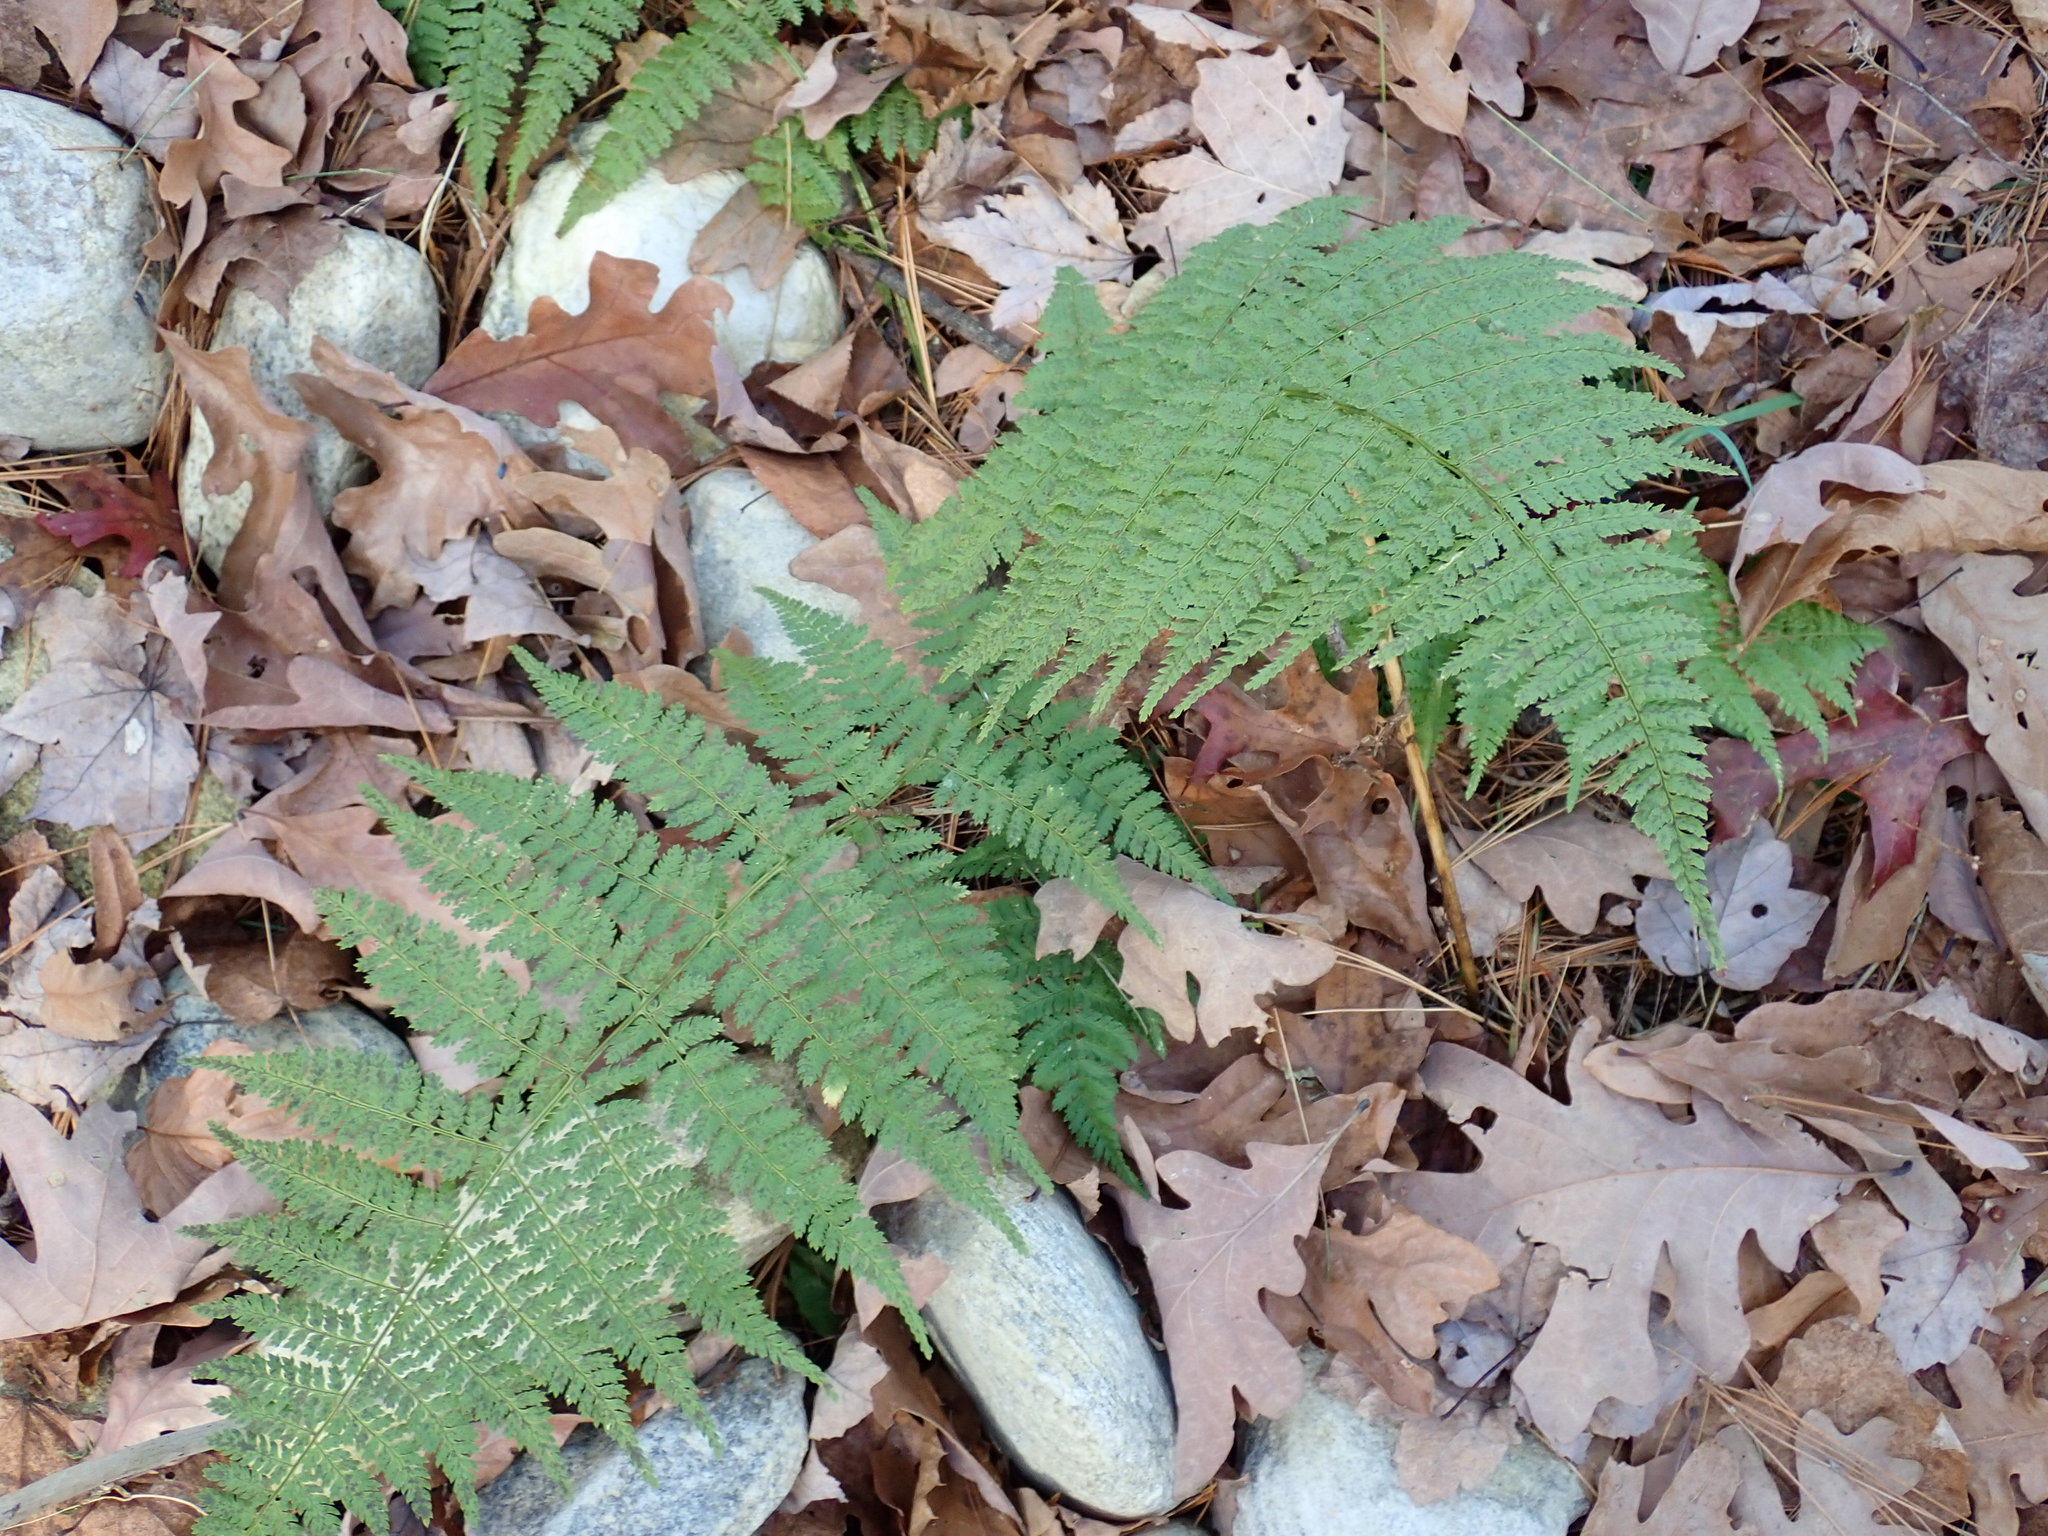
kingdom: Plantae
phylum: Tracheophyta
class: Polypodiopsida
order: Polypodiales
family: Dryopteridaceae
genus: Dryopteris
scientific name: Dryopteris intermedia
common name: Evergreen wood fern
